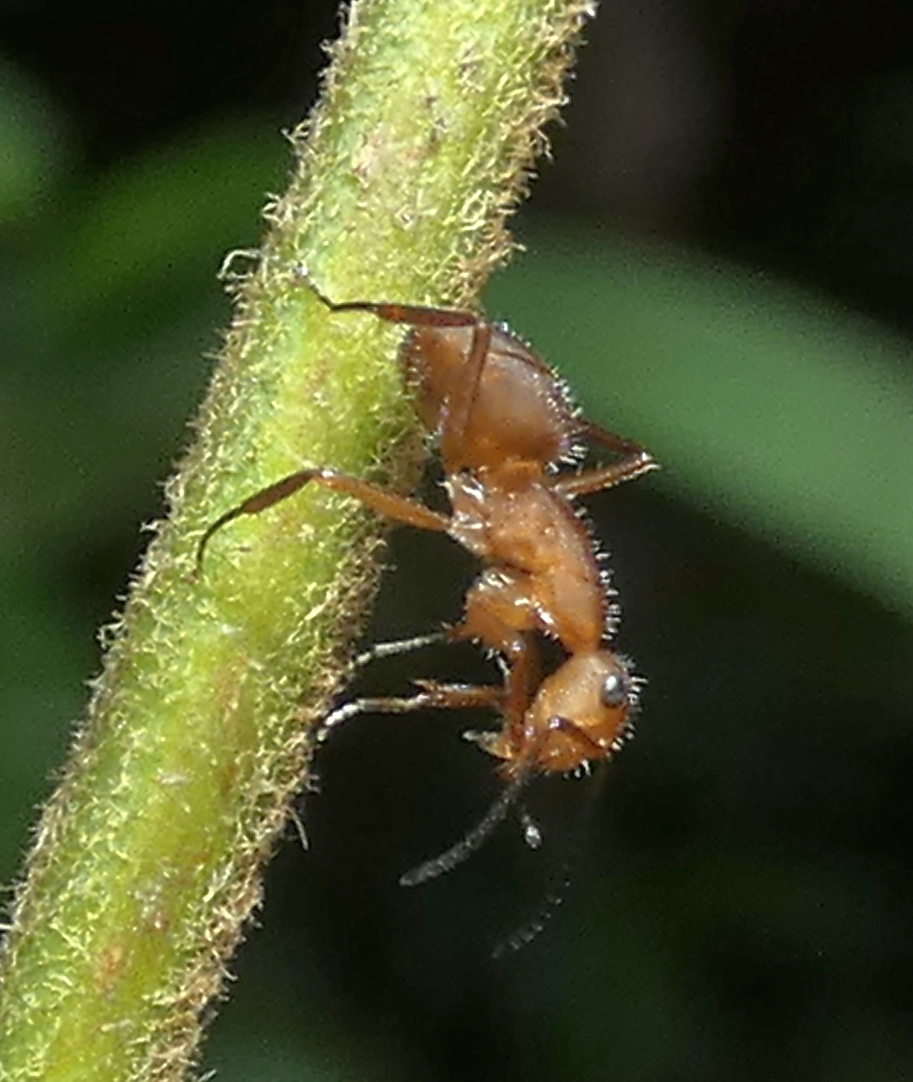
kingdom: Animalia
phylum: Arthropoda
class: Insecta
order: Hymenoptera
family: Formicidae
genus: Camponotus
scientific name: Camponotus rectangularis
